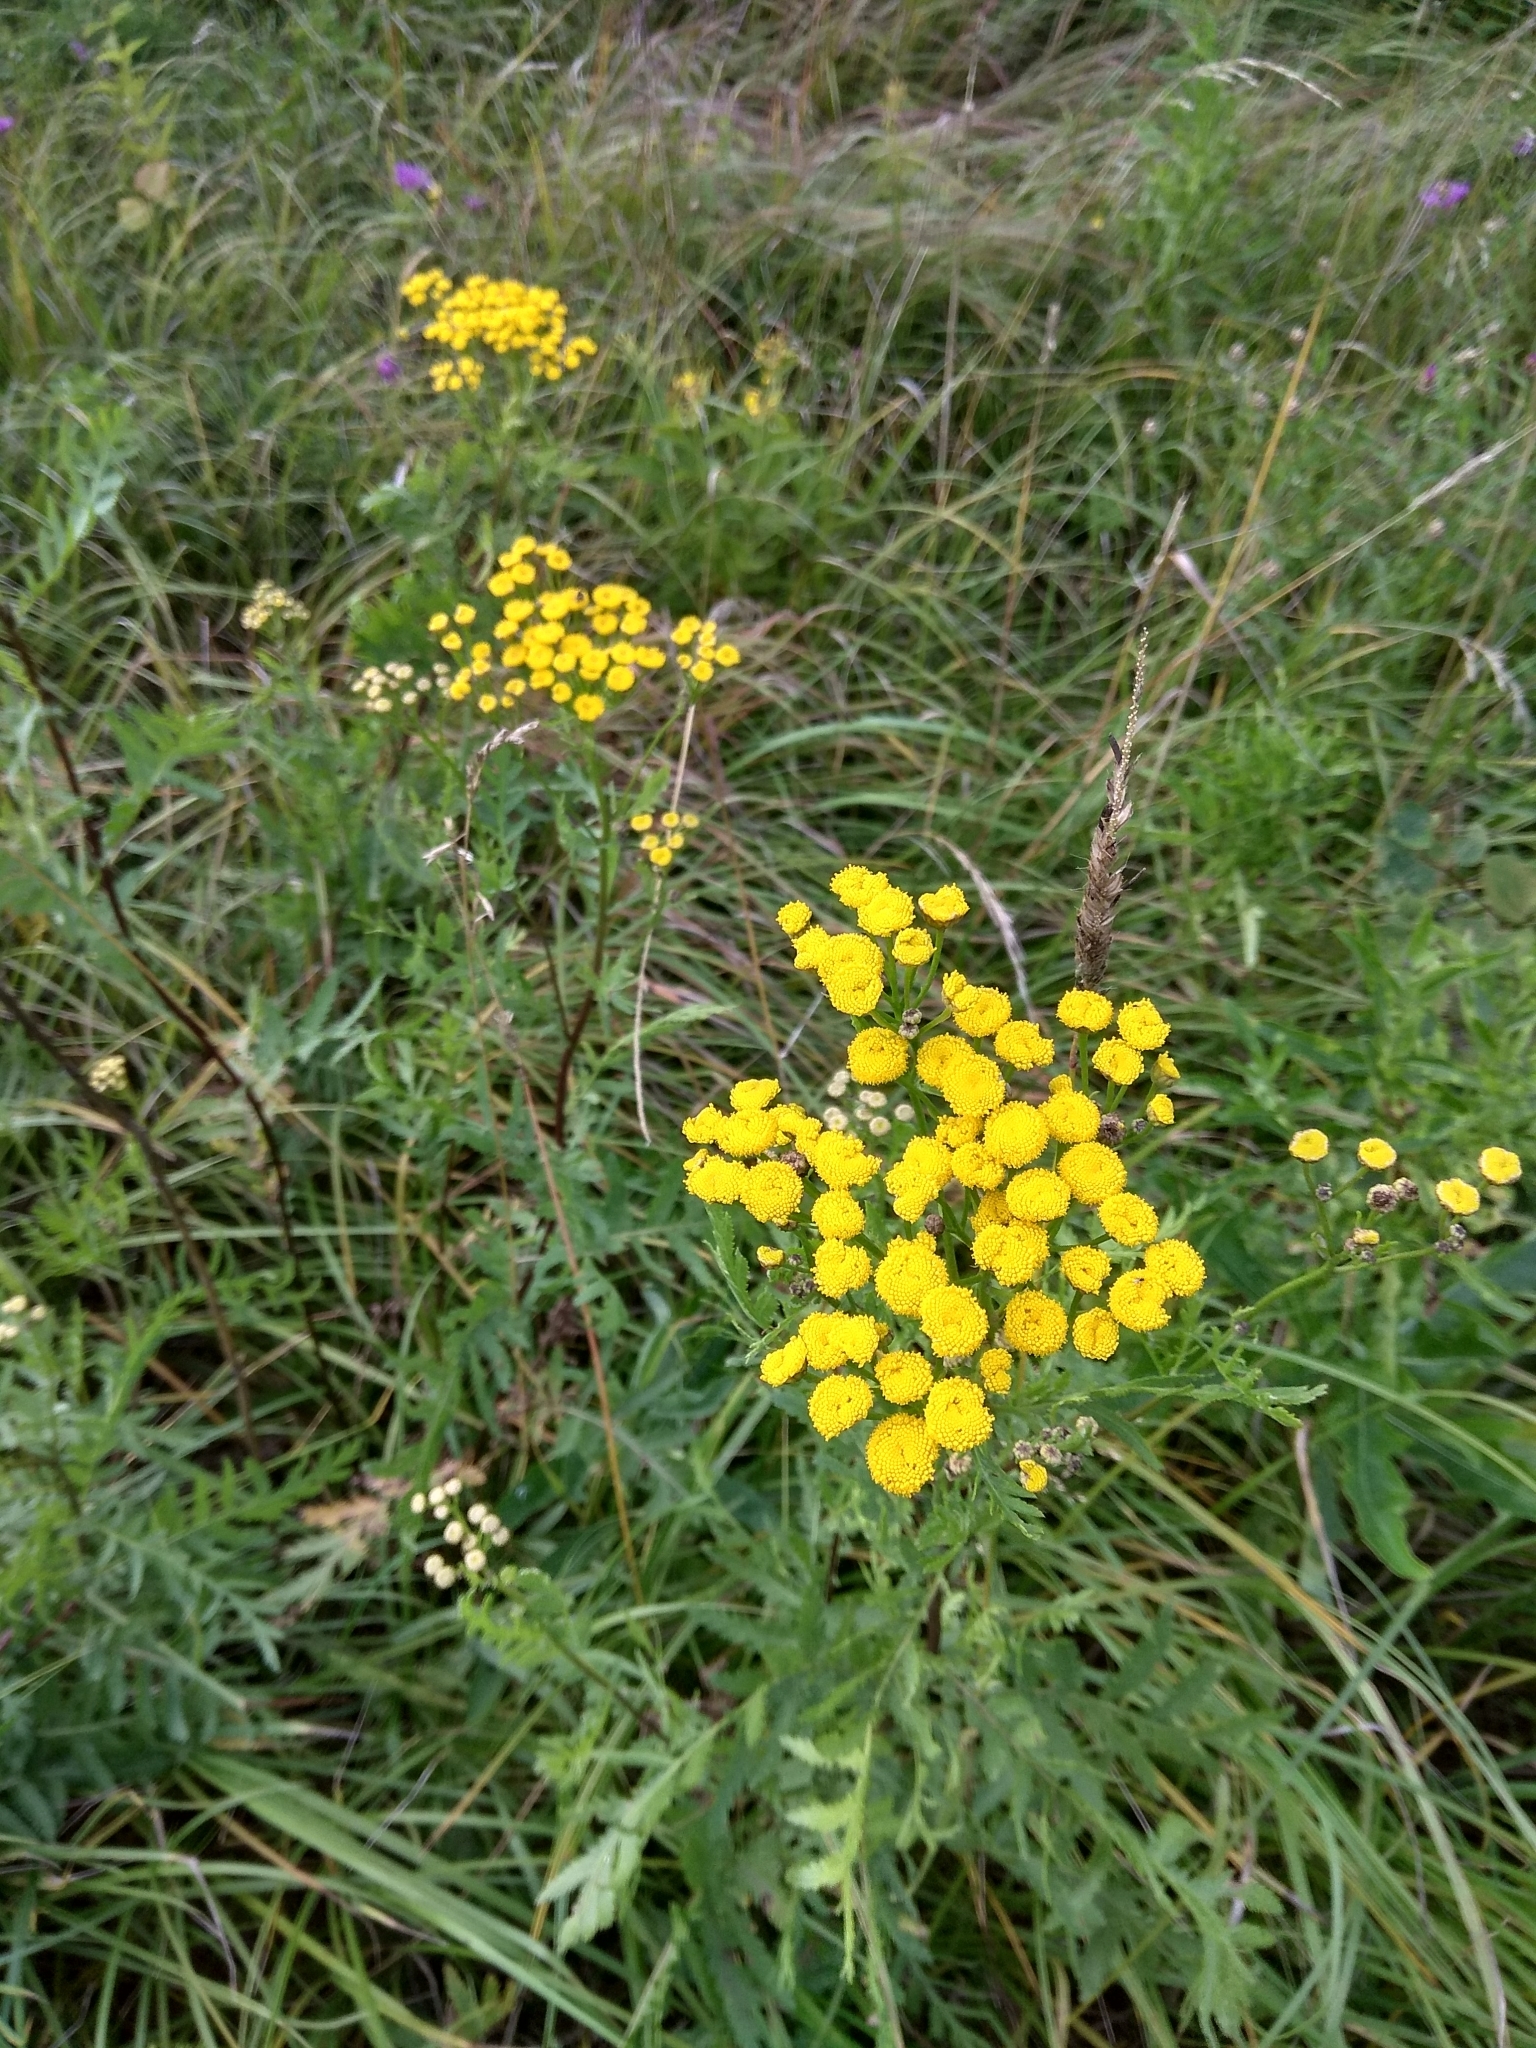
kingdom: Plantae
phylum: Tracheophyta
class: Magnoliopsida
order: Asterales
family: Asteraceae
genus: Tanacetum
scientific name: Tanacetum vulgare
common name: Common tansy
